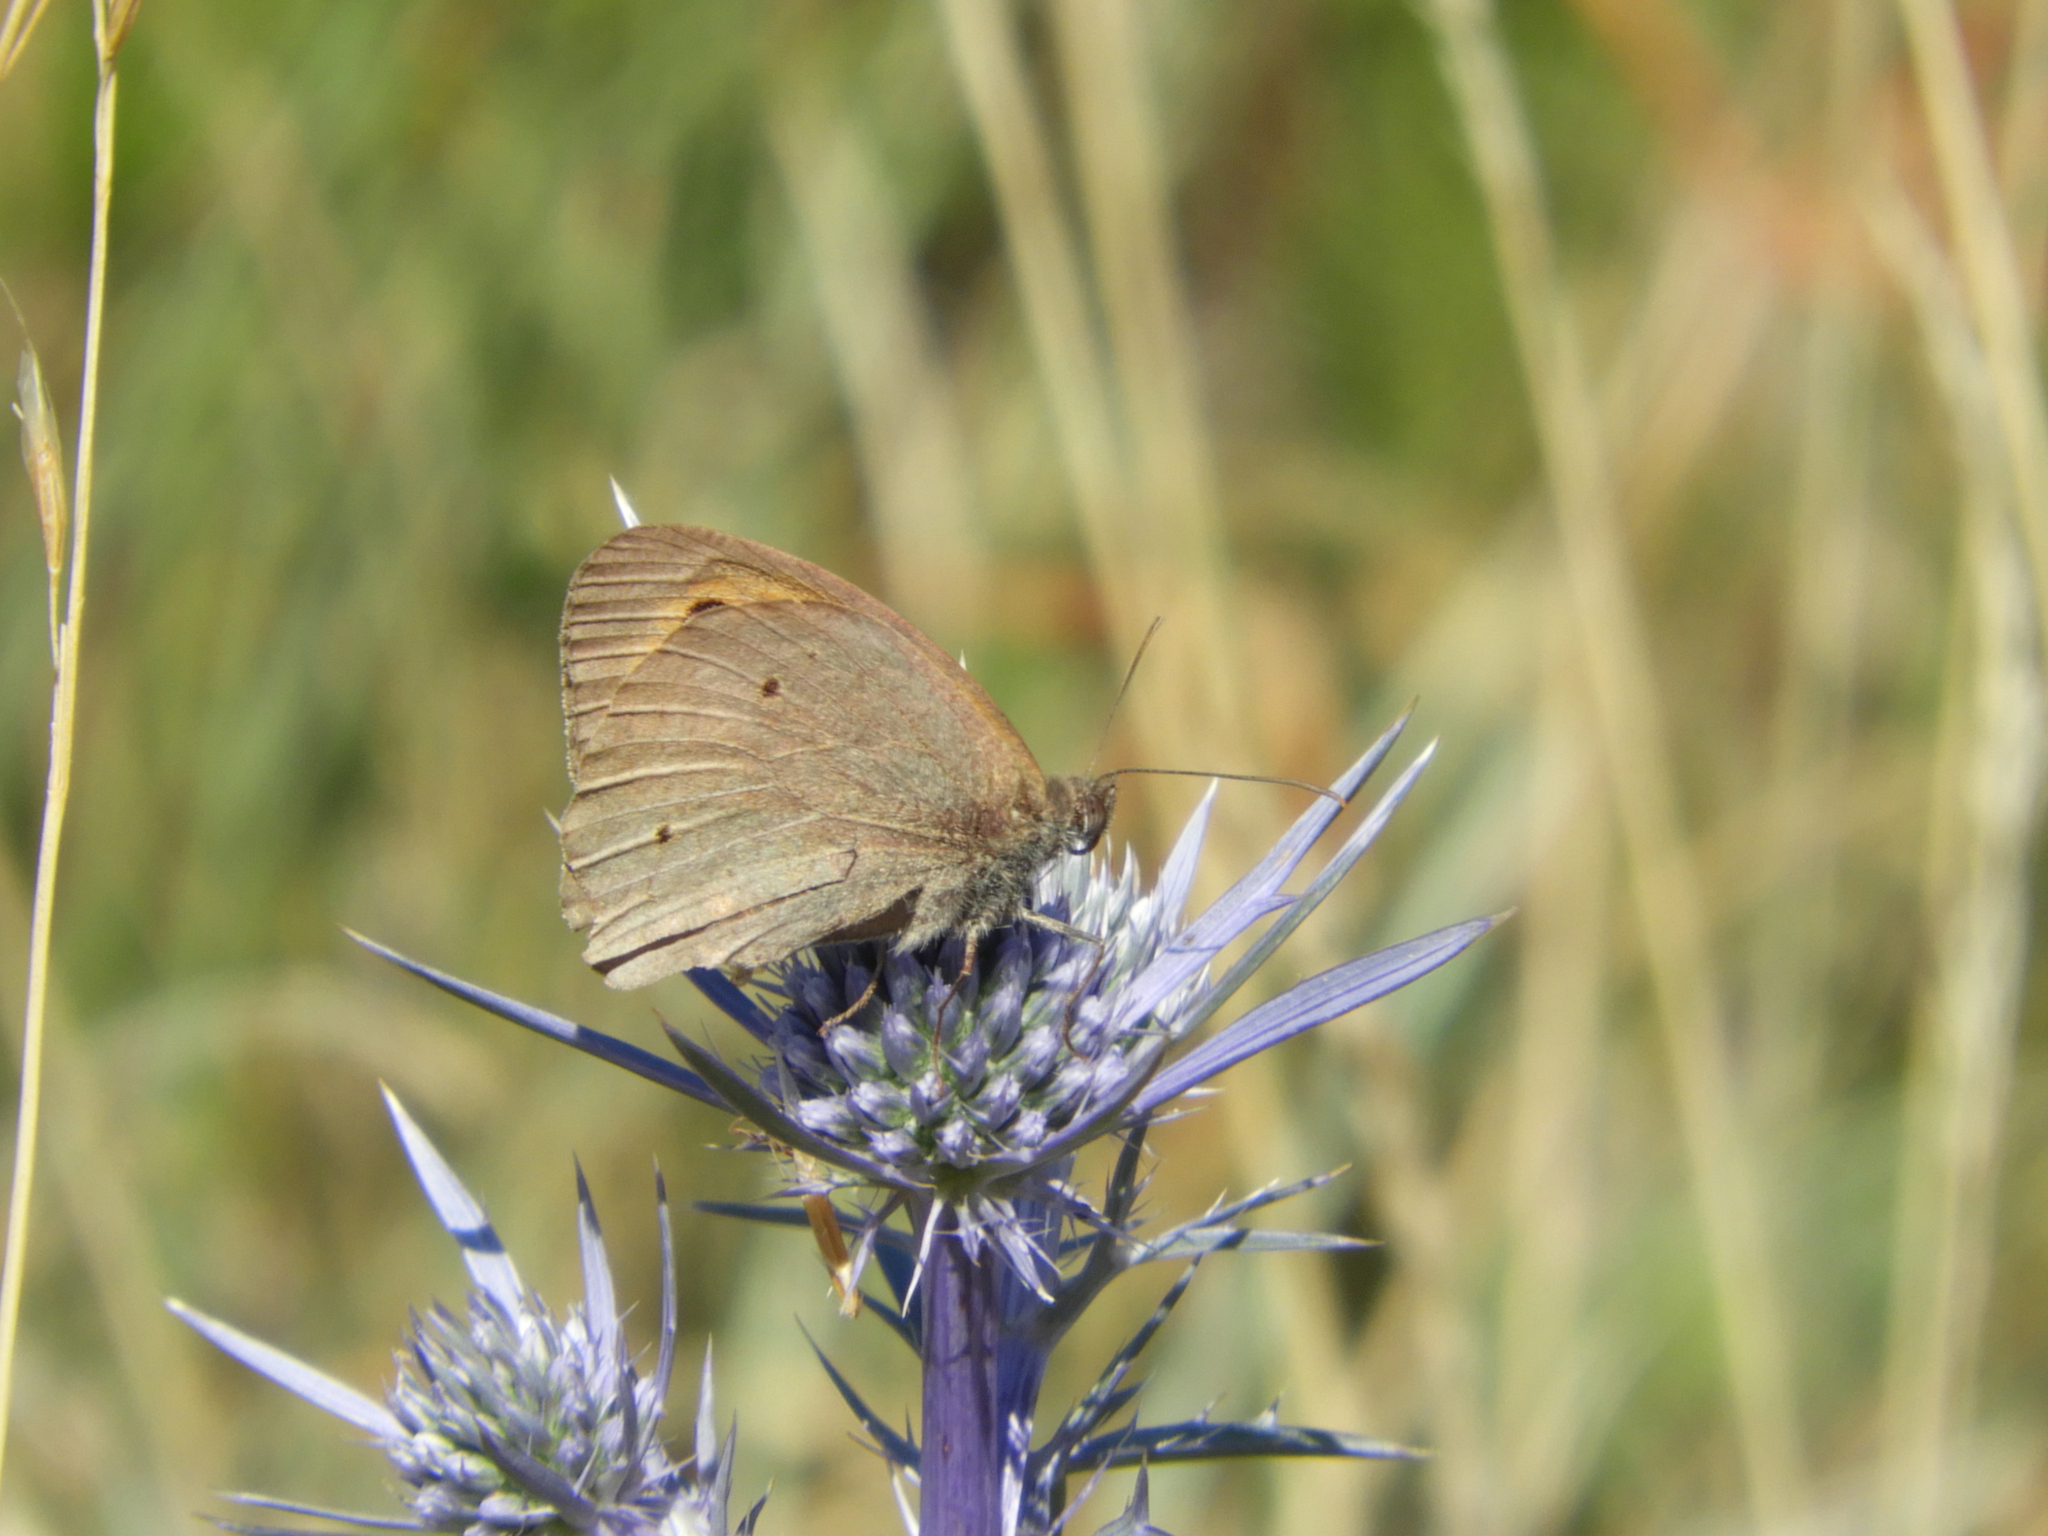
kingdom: Animalia
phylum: Arthropoda
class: Insecta
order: Lepidoptera
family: Nymphalidae
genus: Maniola
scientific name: Maniola jurtina
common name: Meadow brown
